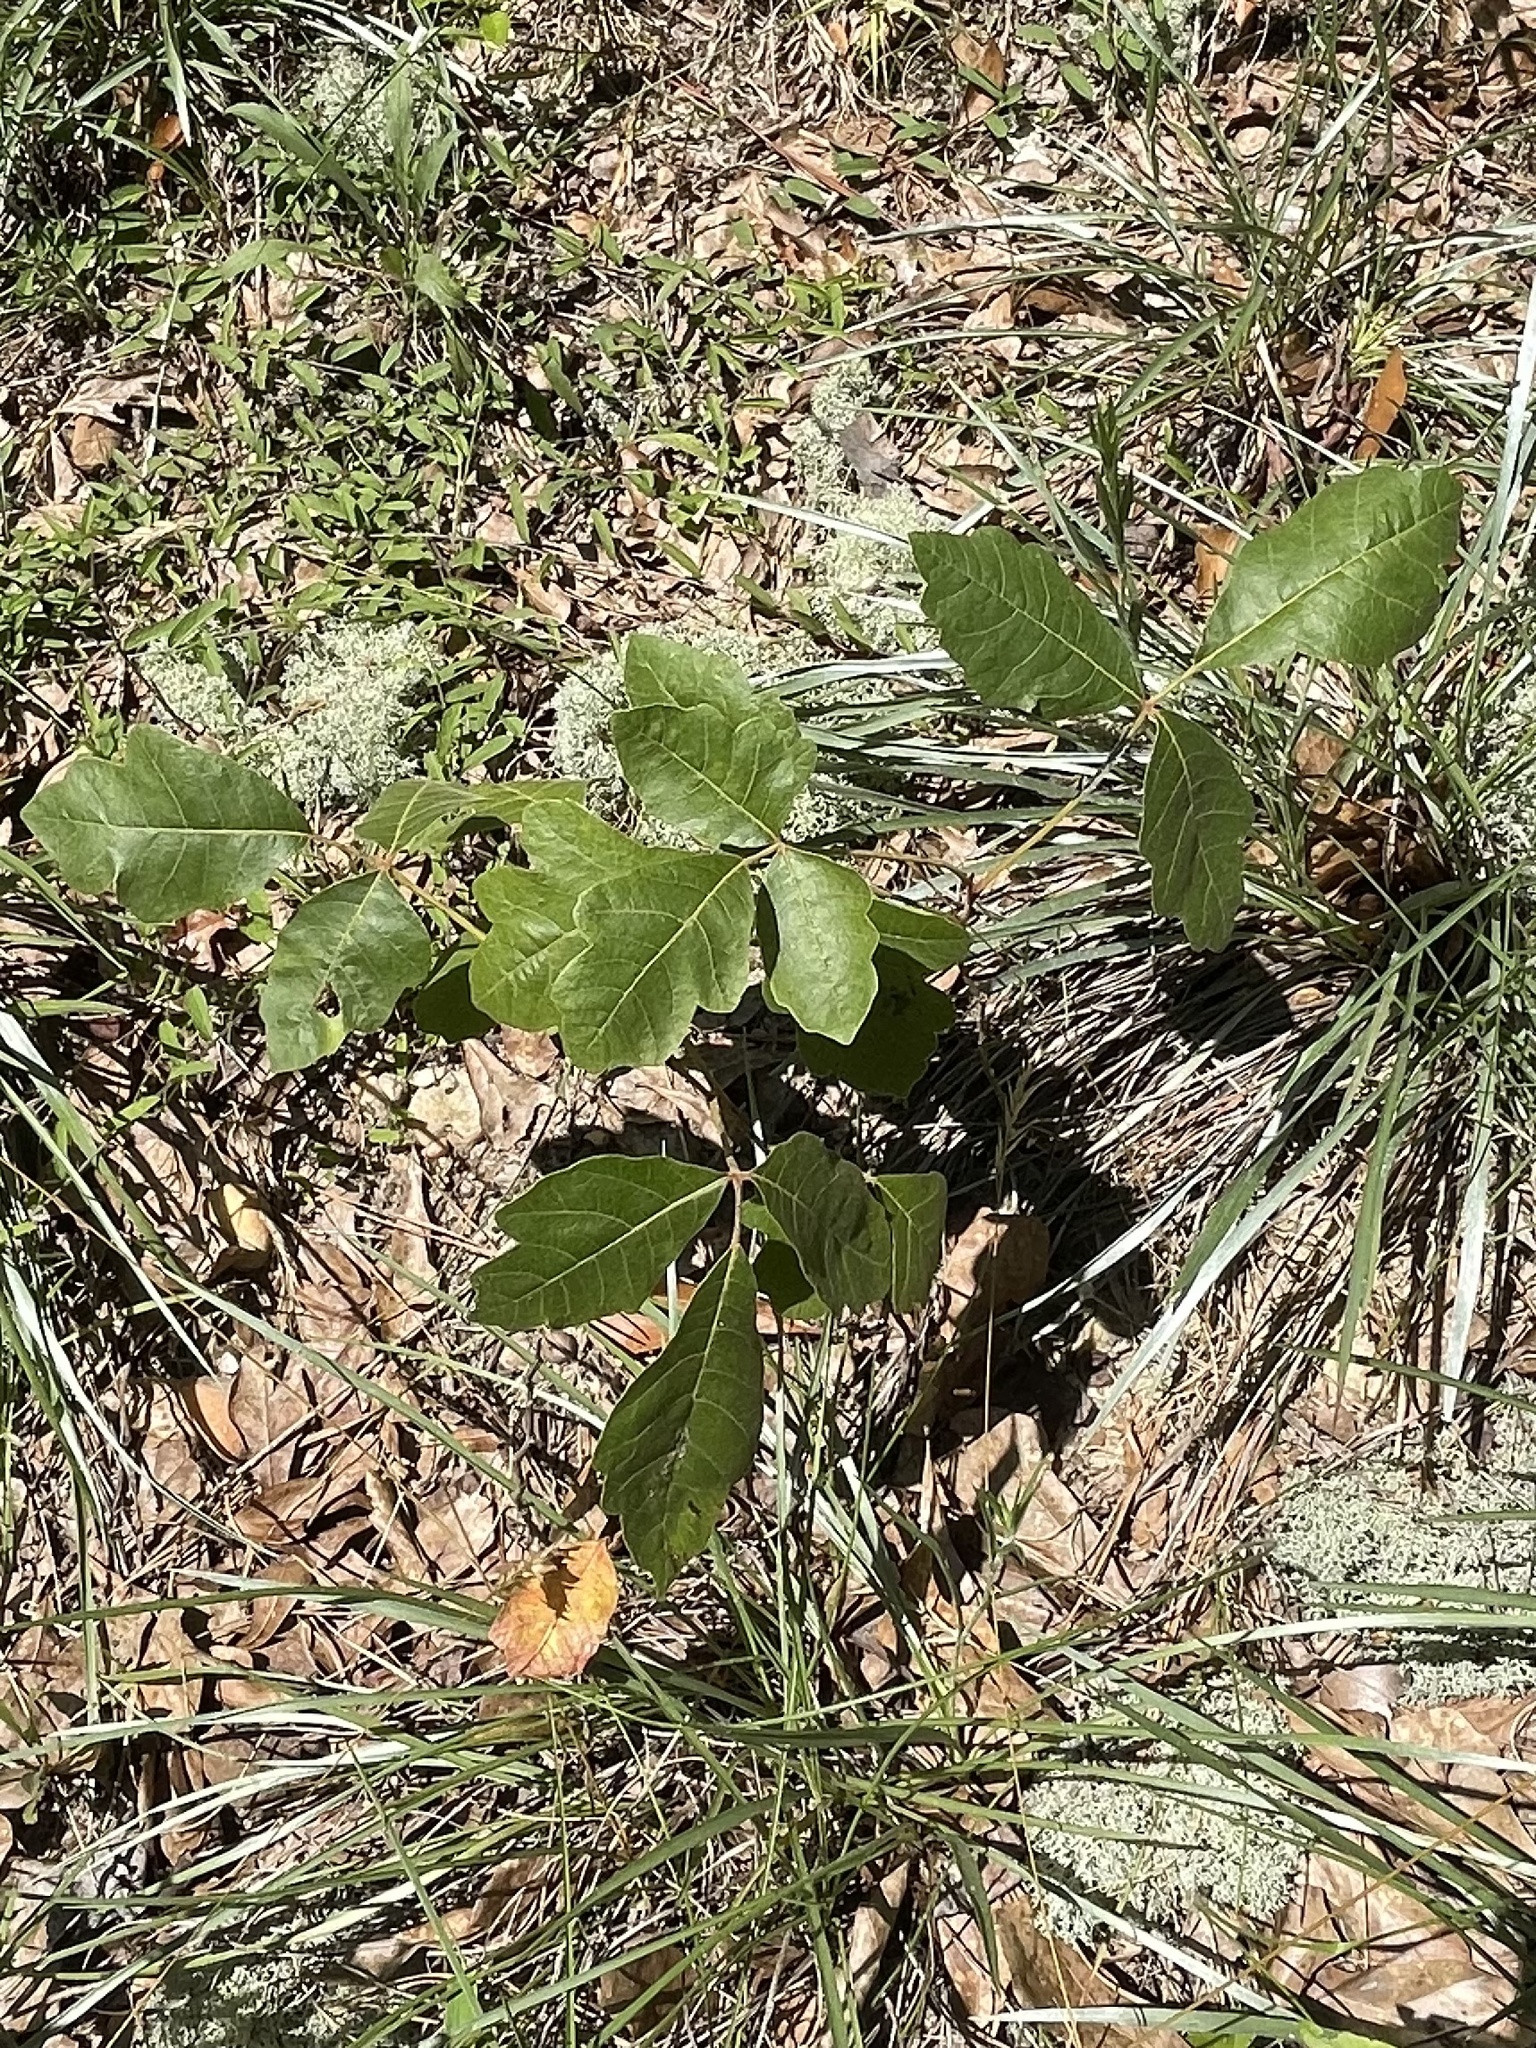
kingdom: Plantae
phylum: Tracheophyta
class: Magnoliopsida
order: Sapindales
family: Anacardiaceae
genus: Toxicodendron
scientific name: Toxicodendron pubescens
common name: Eastern poison-oak
